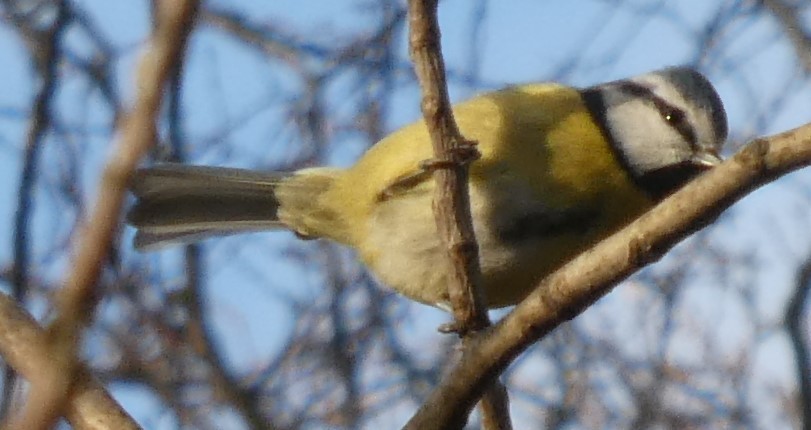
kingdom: Animalia
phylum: Chordata
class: Aves
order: Passeriformes
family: Paridae
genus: Cyanistes
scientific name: Cyanistes caeruleus
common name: Eurasian blue tit
